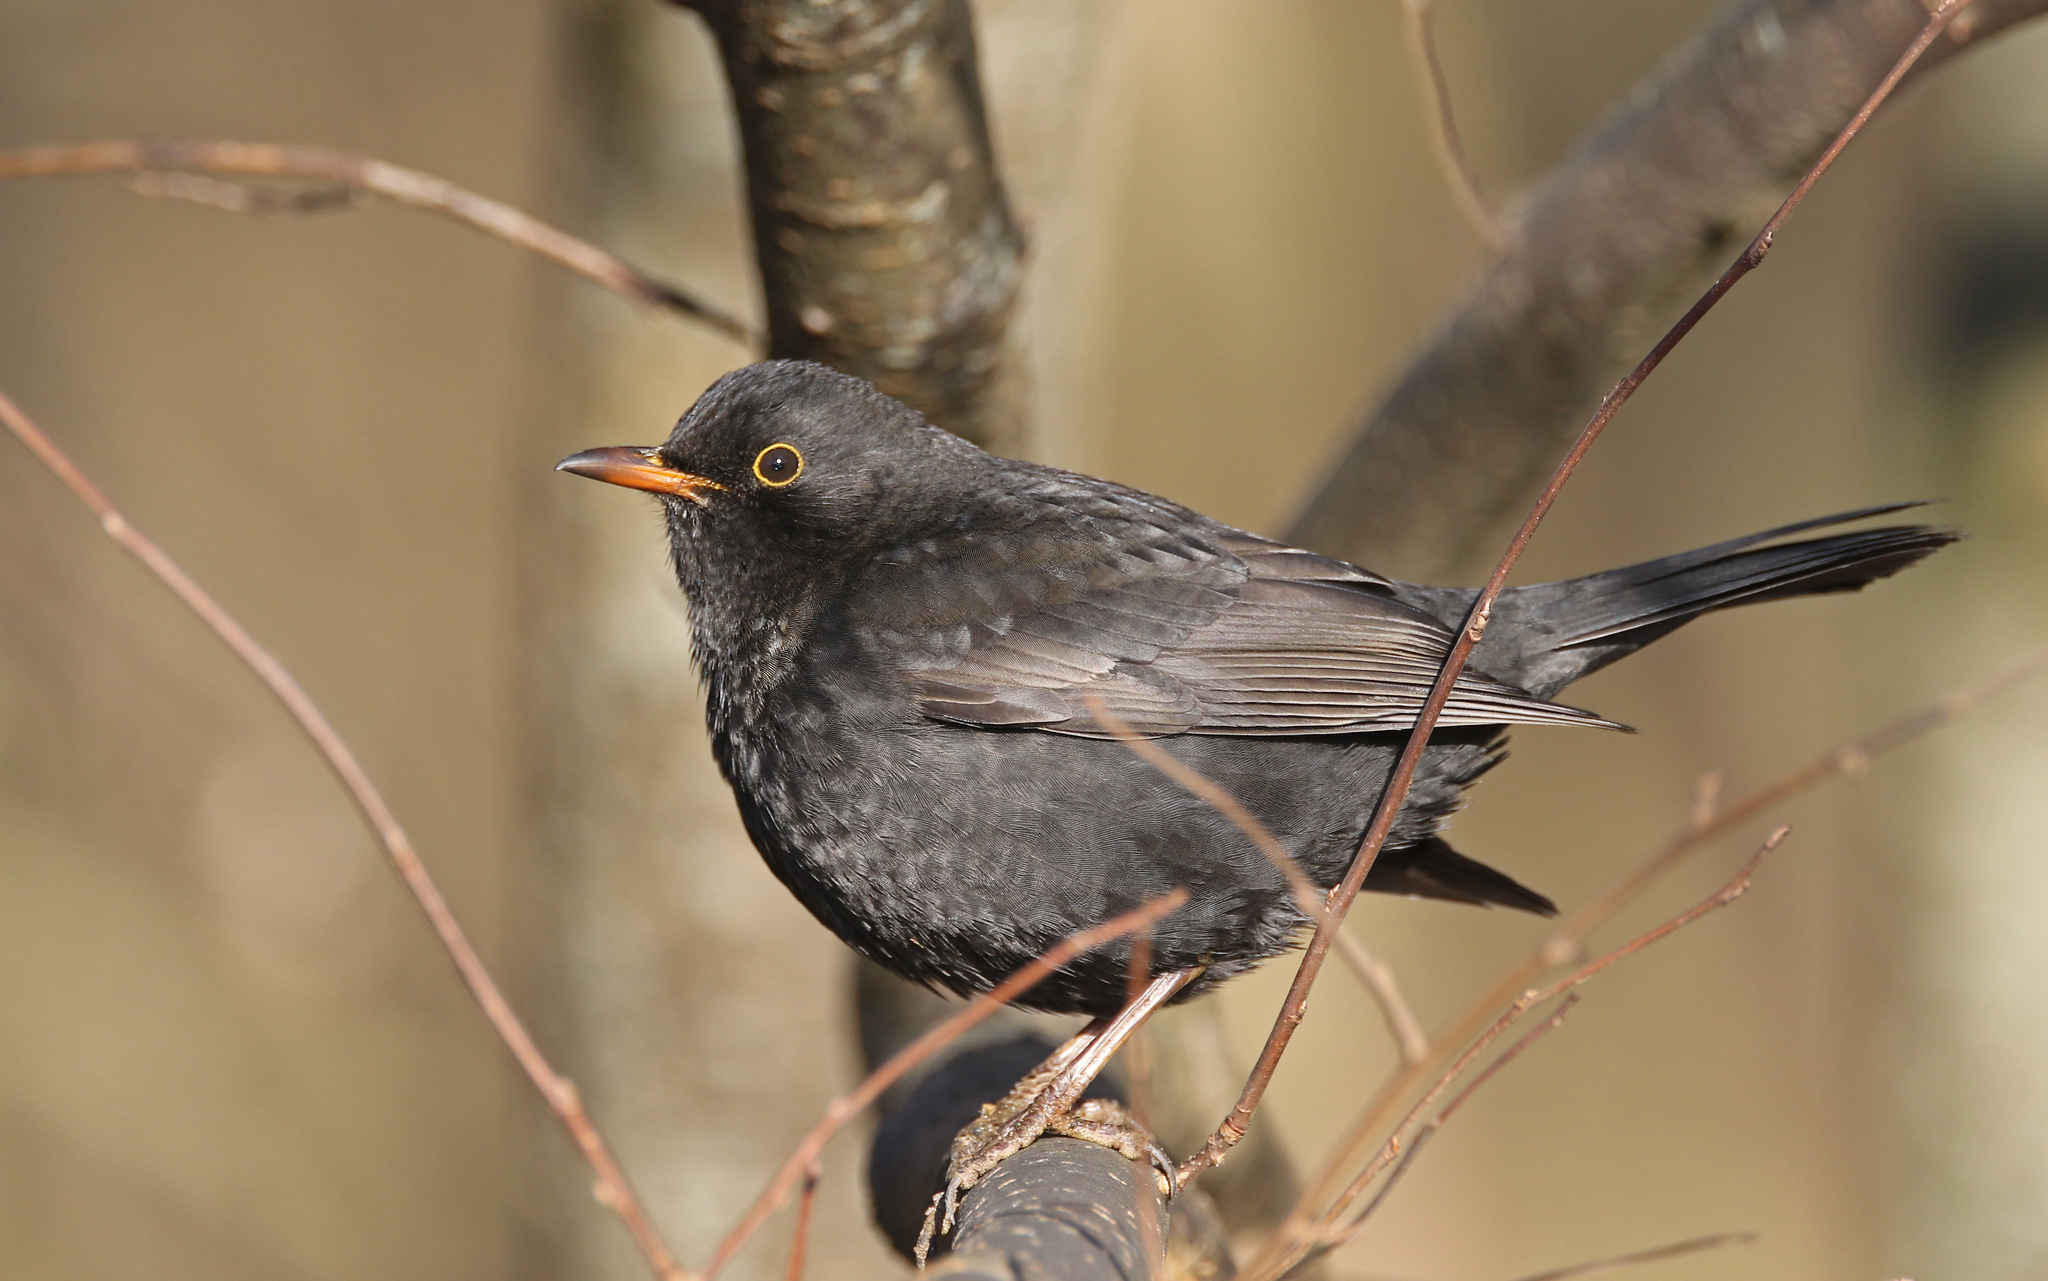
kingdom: Animalia
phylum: Chordata
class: Aves
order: Passeriformes
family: Turdidae
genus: Turdus
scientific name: Turdus merula
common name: Common blackbird
